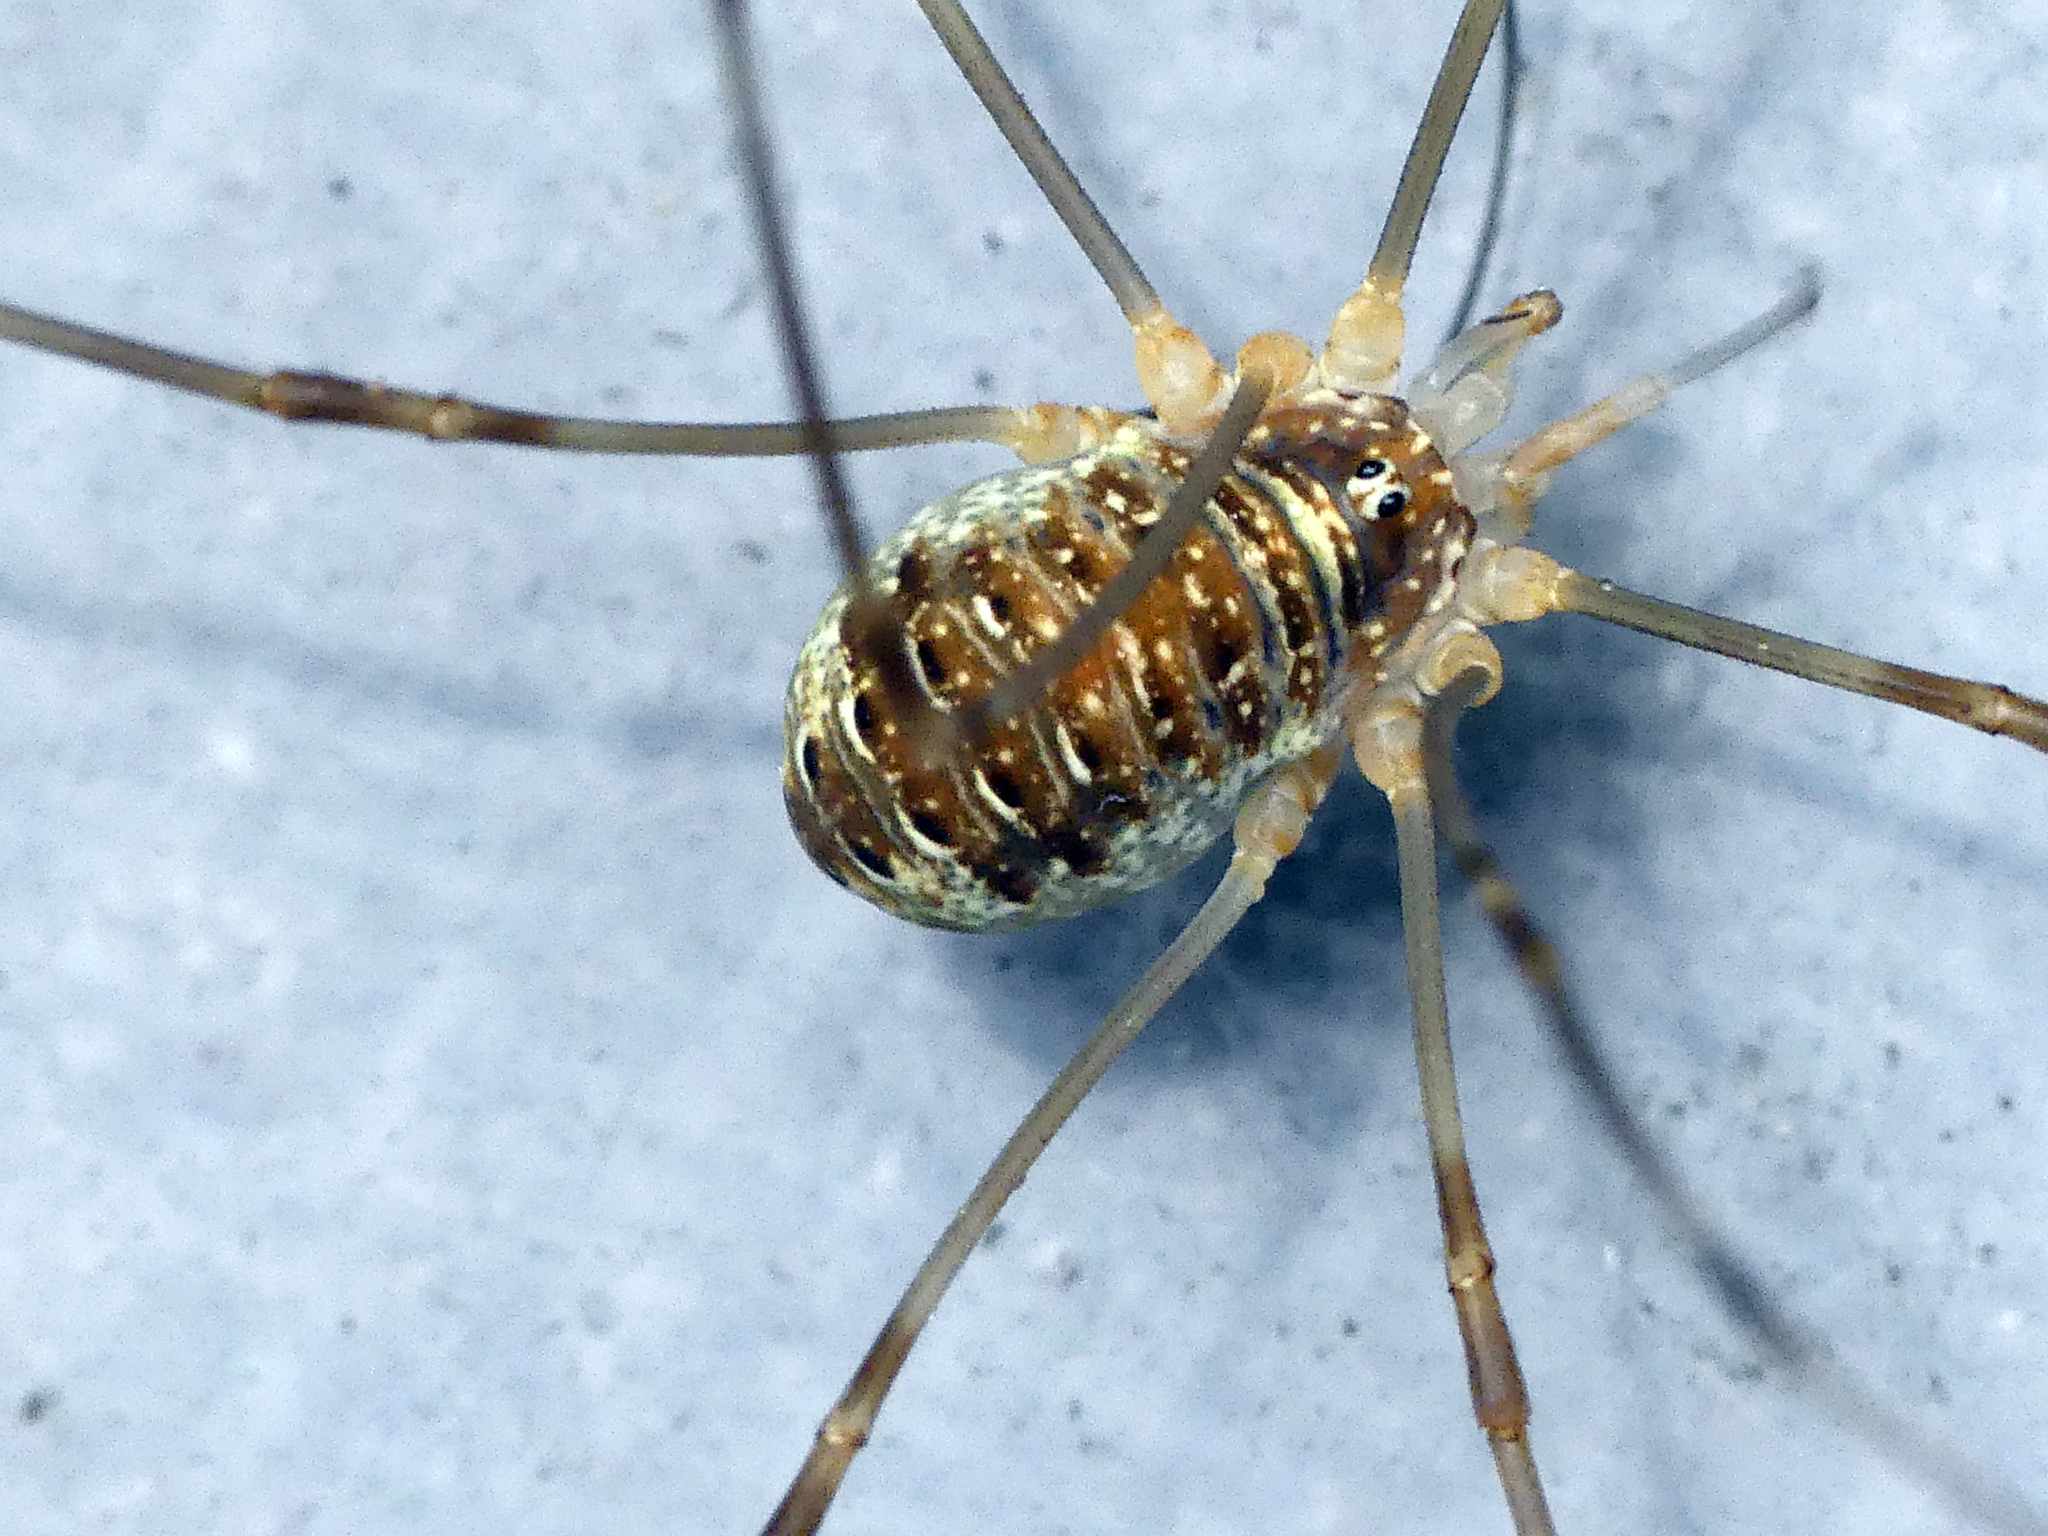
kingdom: Animalia
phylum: Arthropoda
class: Arachnida
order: Opiliones
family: Phalangiidae
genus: Opilio
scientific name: Opilio canestrinii
